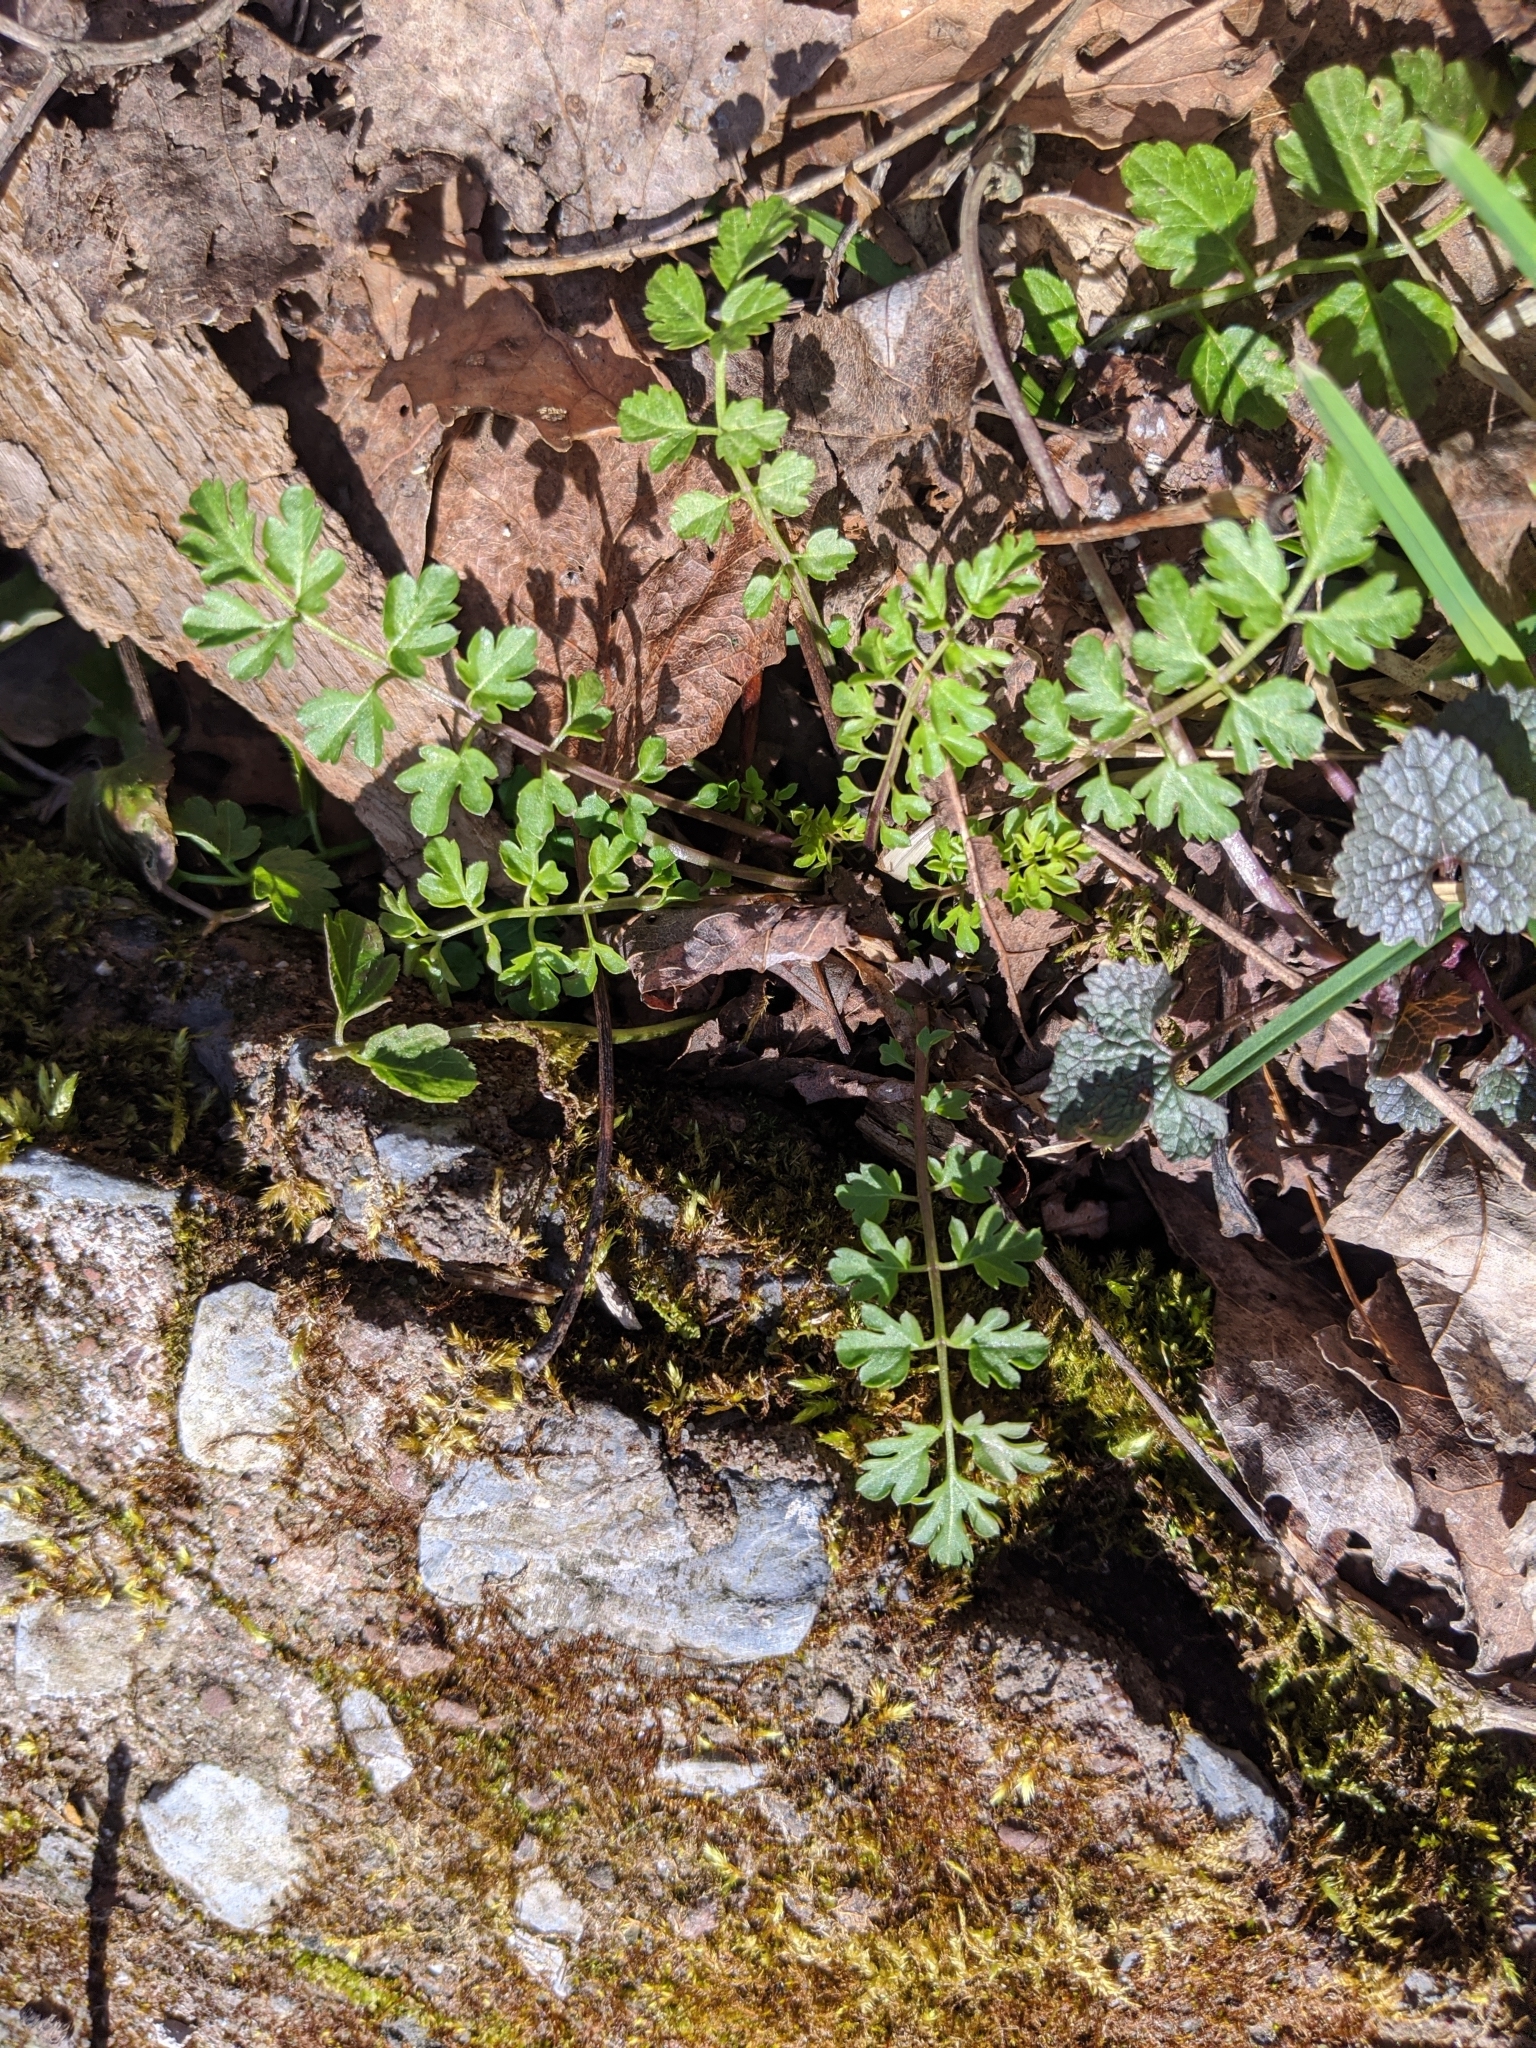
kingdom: Plantae
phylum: Tracheophyta
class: Magnoliopsida
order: Brassicales
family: Brassicaceae
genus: Cardamine
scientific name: Cardamine impatiens
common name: Narrow-leaved bitter-cress
